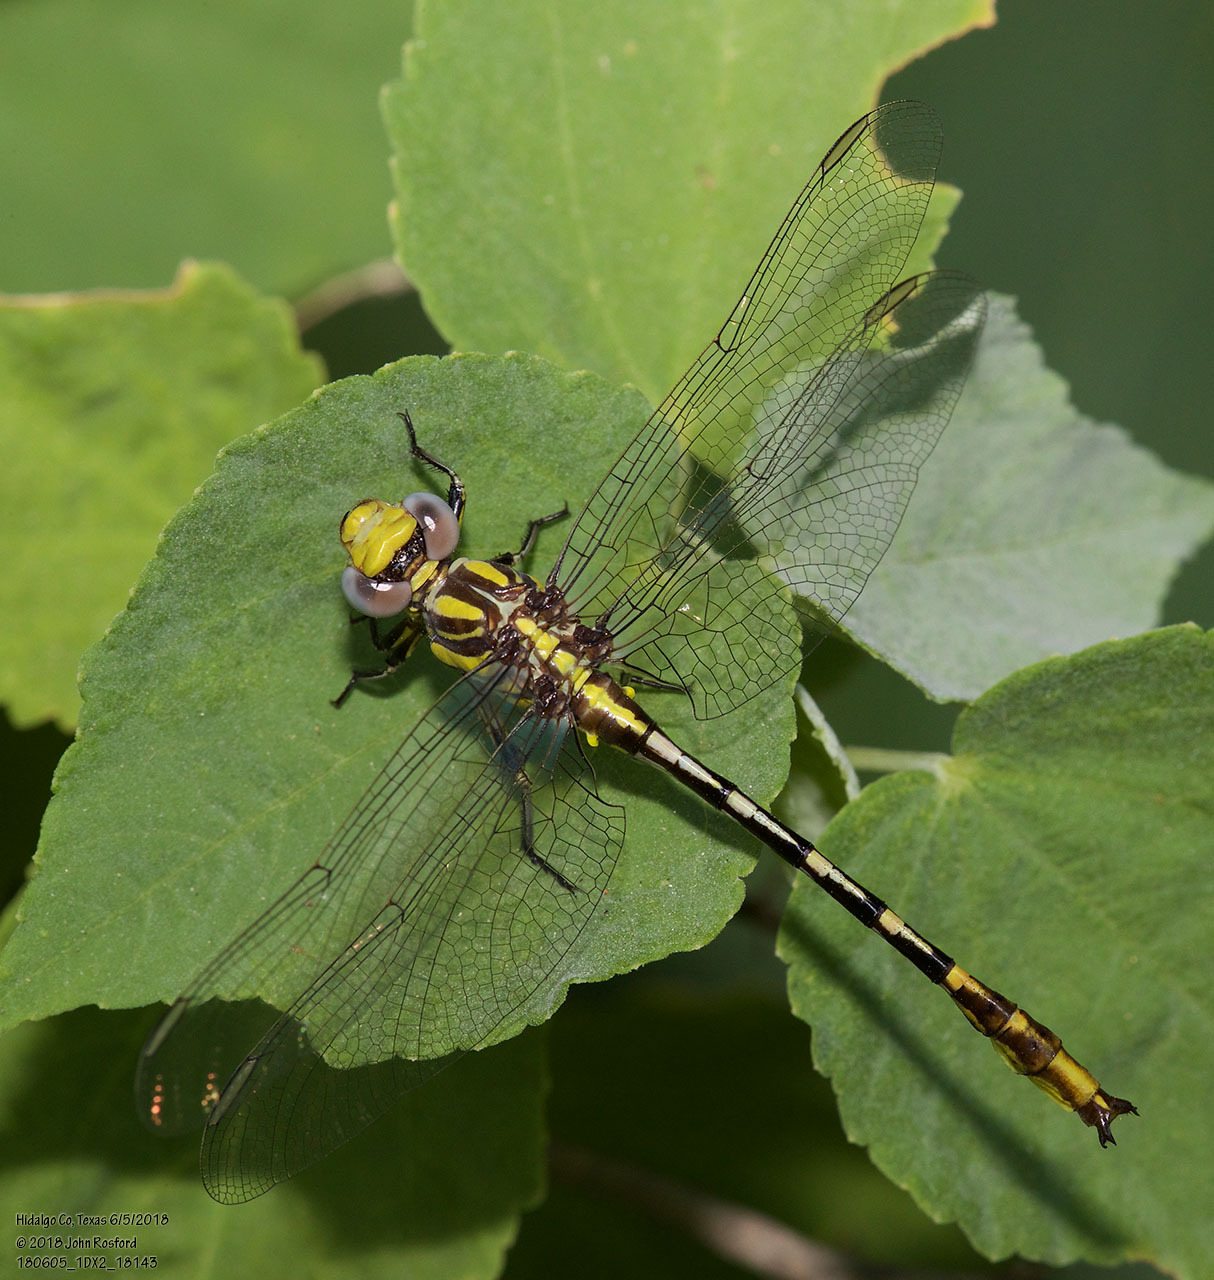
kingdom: Animalia
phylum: Arthropoda
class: Insecta
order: Odonata
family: Gomphidae
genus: Phanogomphus
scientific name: Phanogomphus militaris
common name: Sulphur-tipped clubtail
